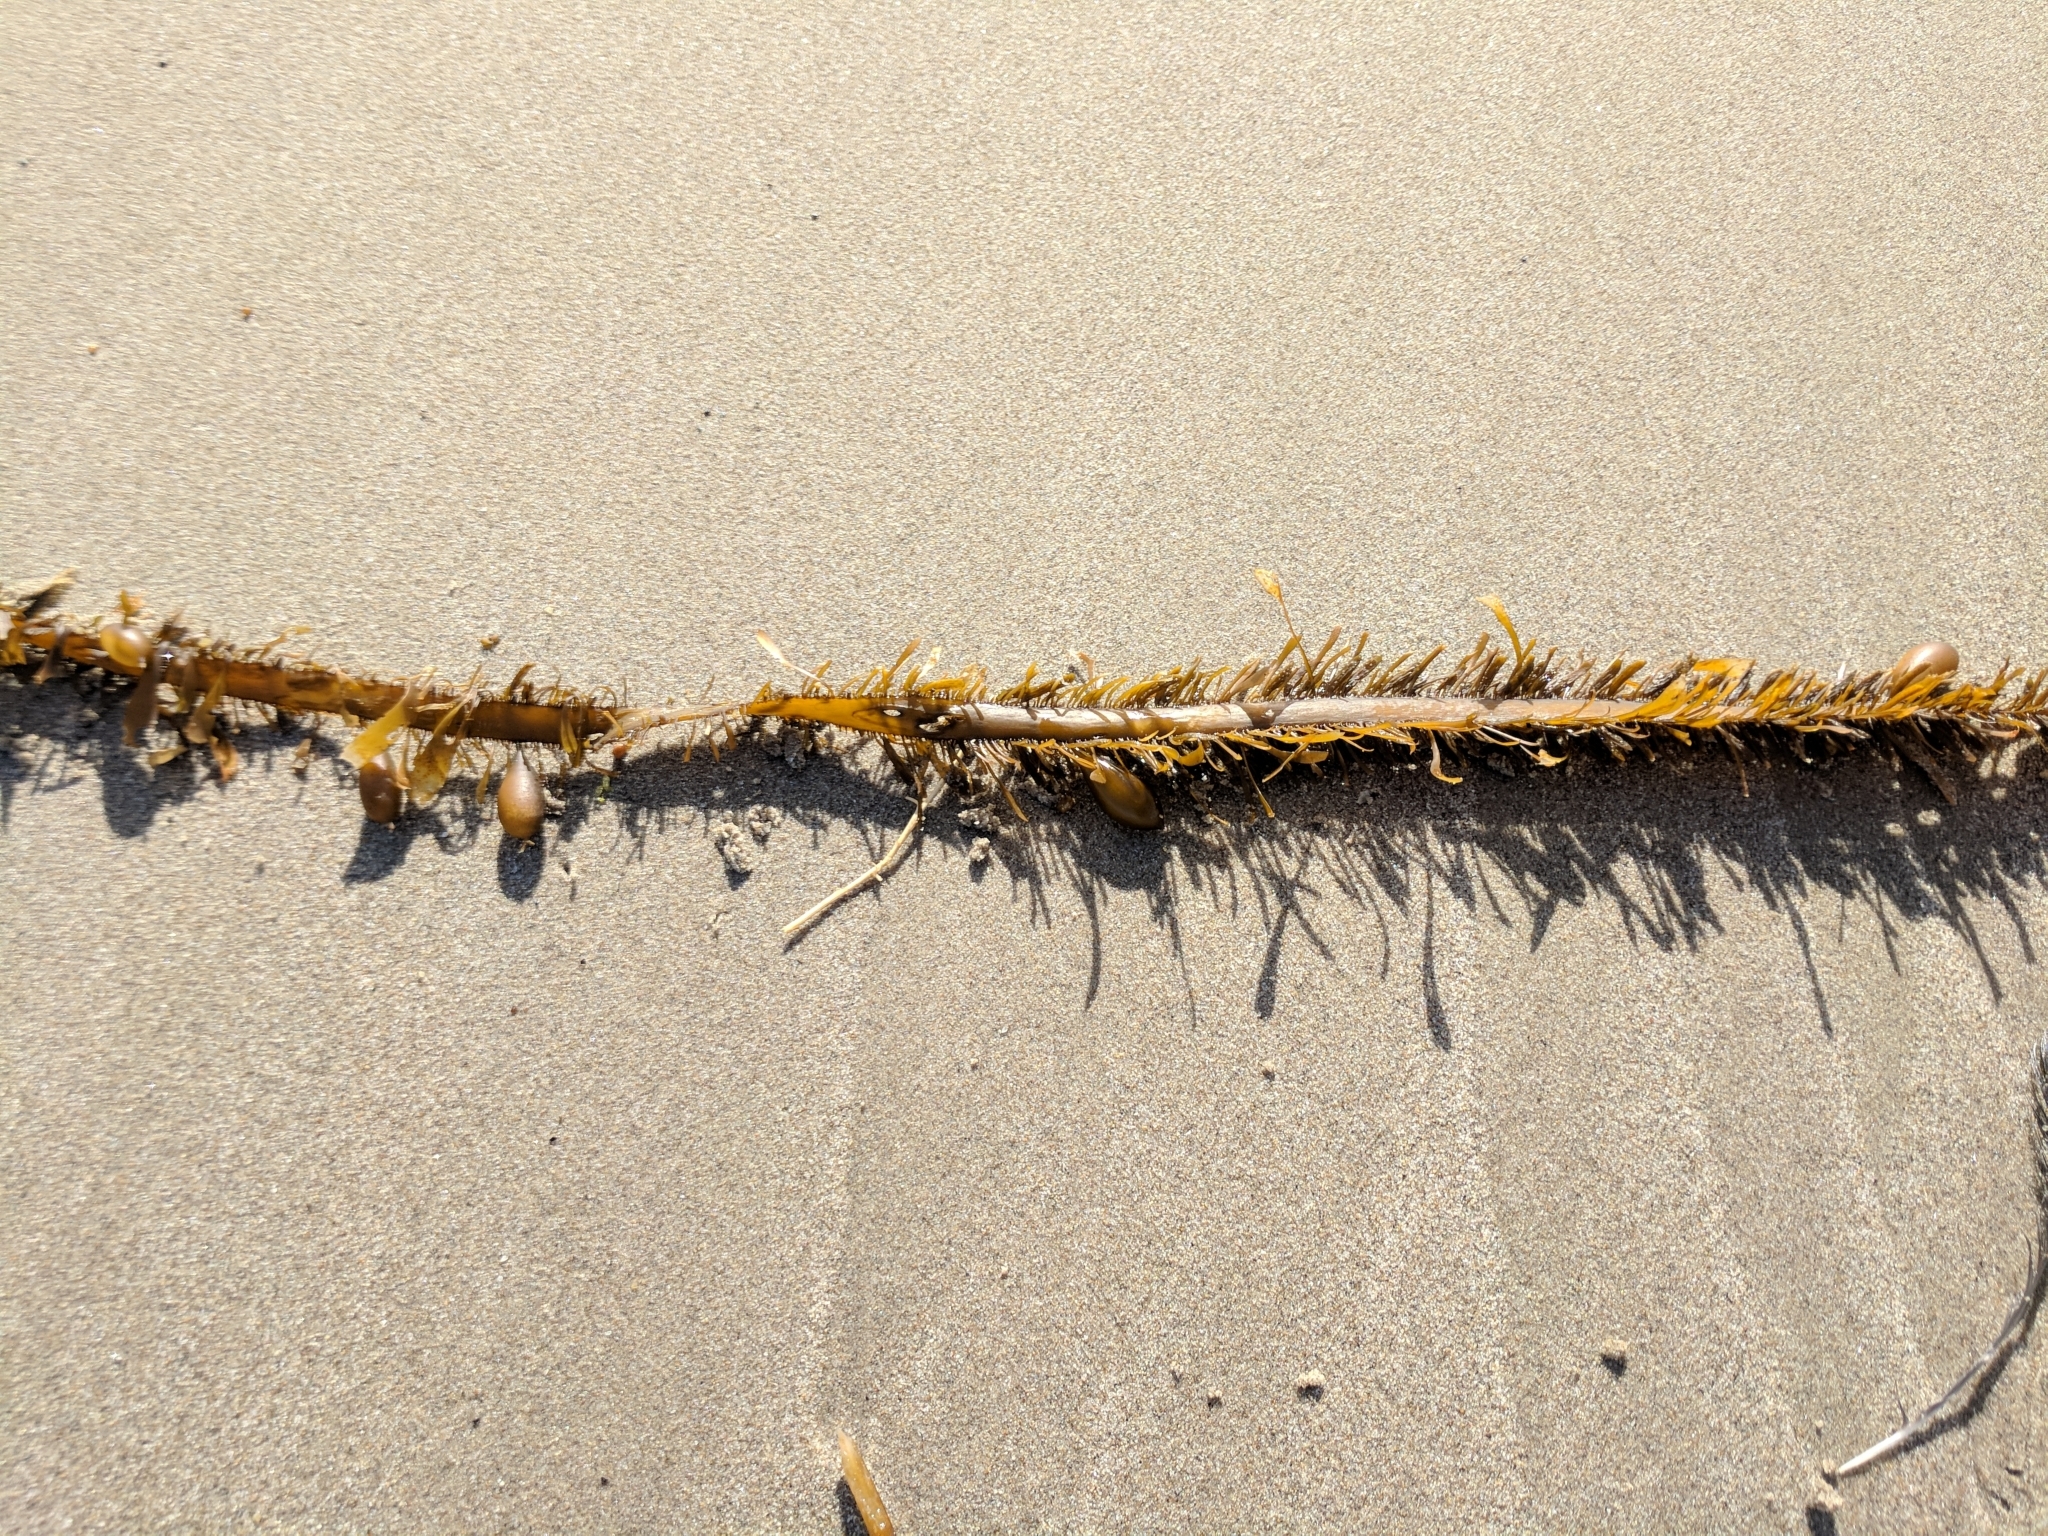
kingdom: Chromista
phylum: Ochrophyta
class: Phaeophyceae
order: Laminariales
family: Lessoniaceae
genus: Egregia
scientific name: Egregia menziesii
